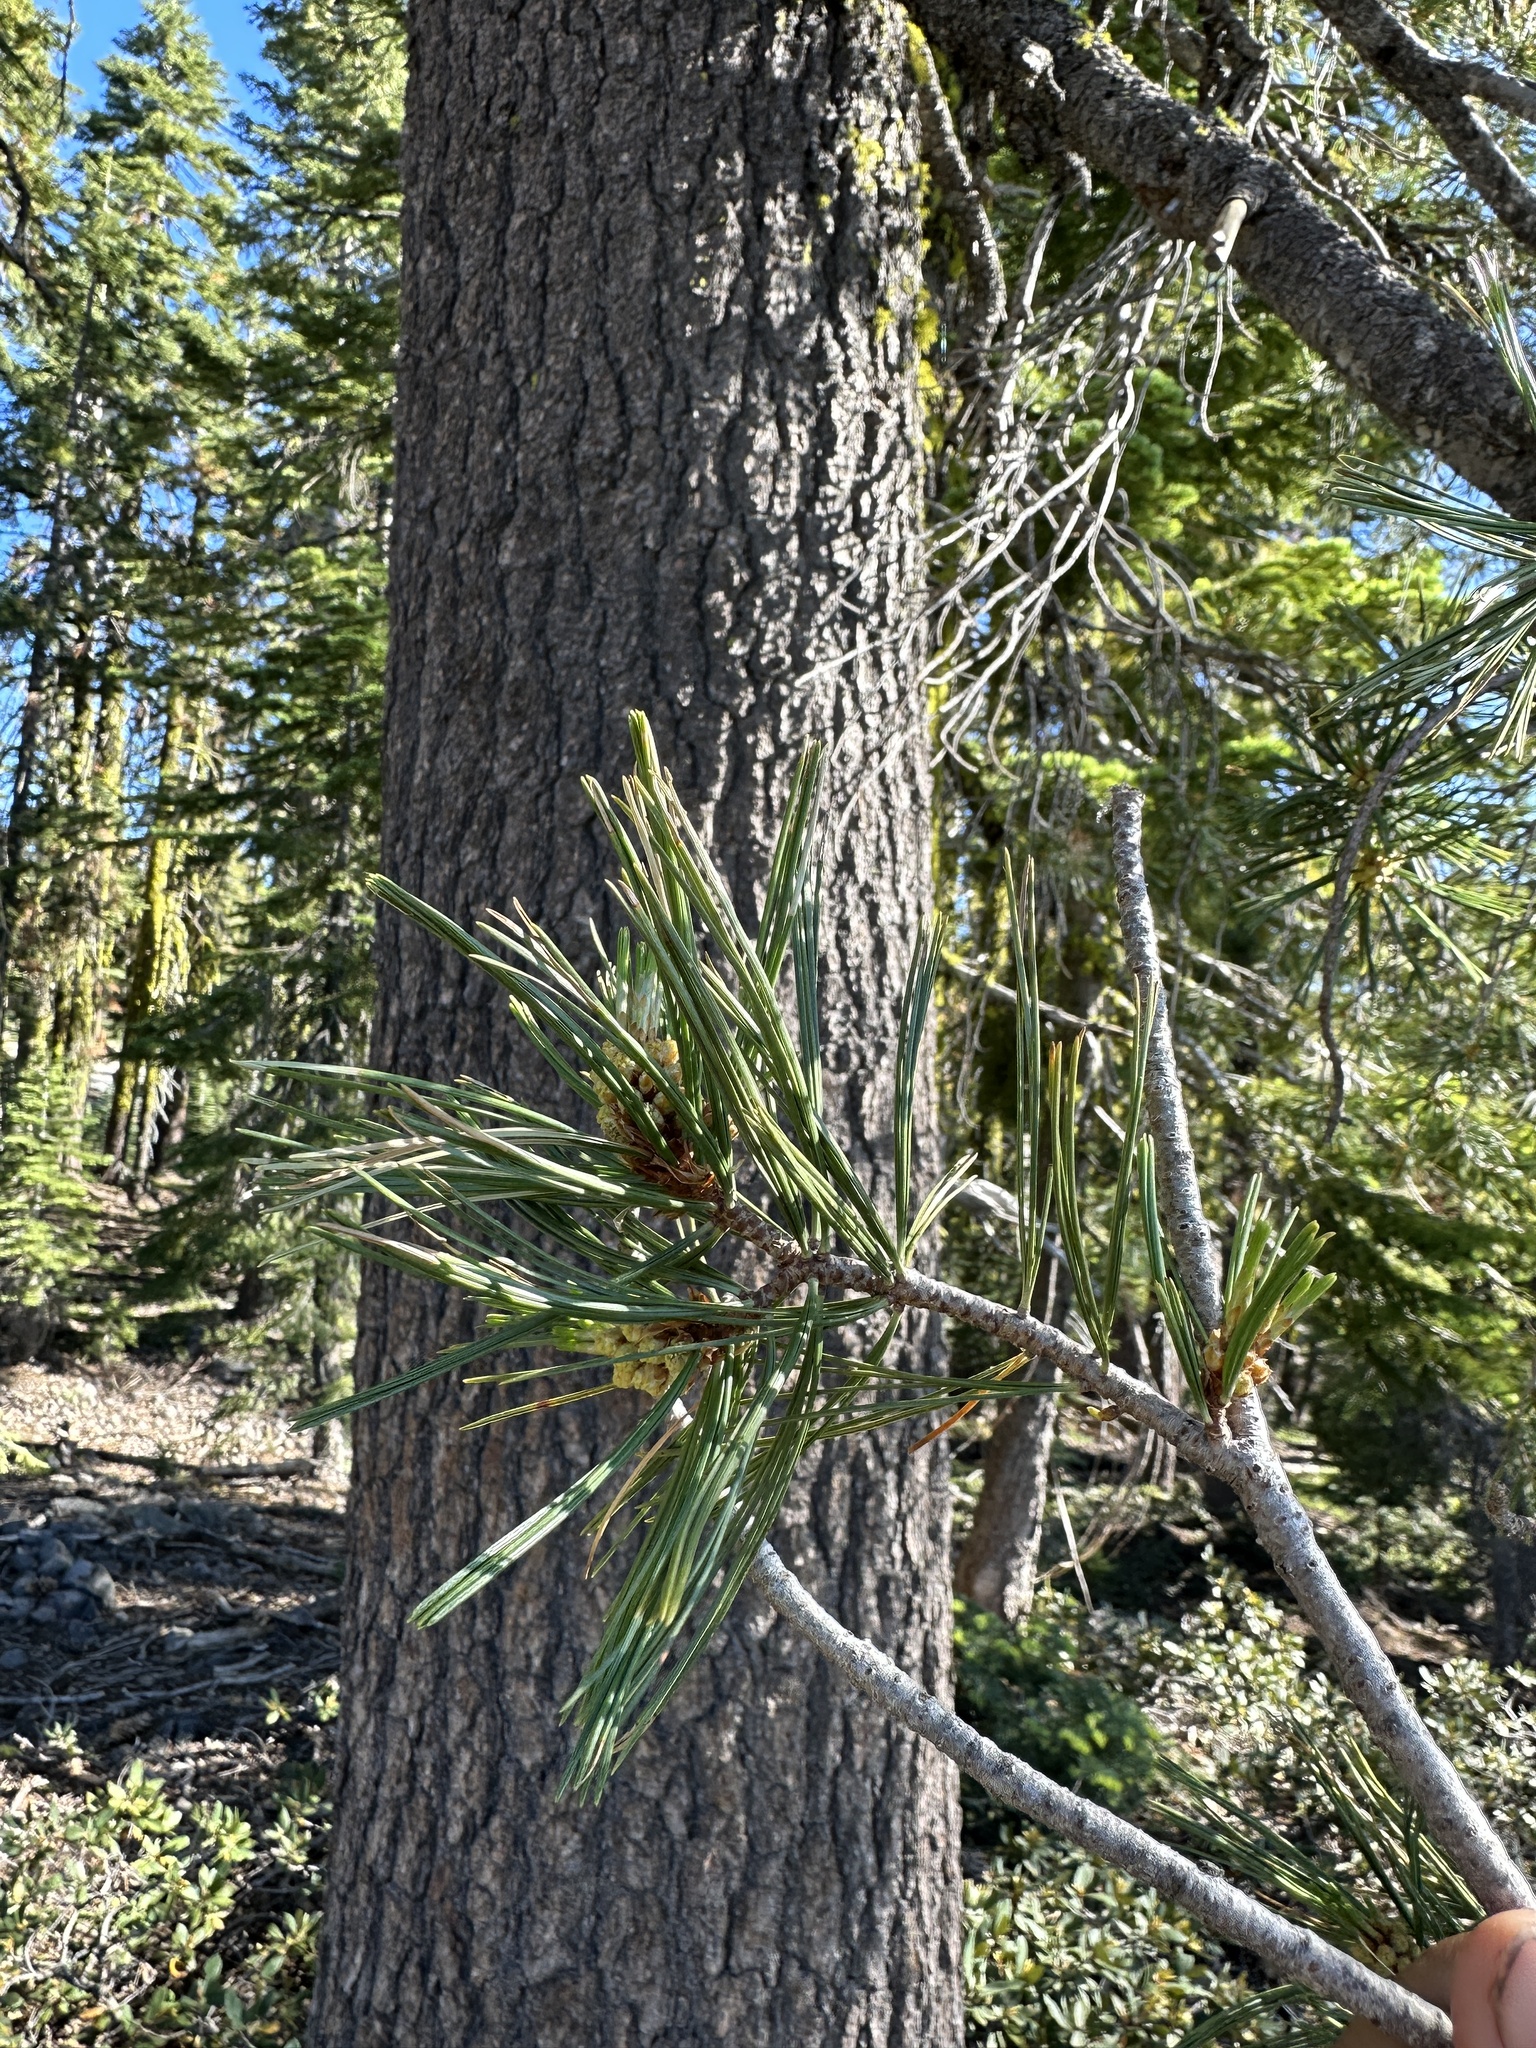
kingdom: Plantae
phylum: Tracheophyta
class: Pinopsida
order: Pinales
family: Pinaceae
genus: Pinus
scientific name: Pinus monticola
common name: Western white pine
